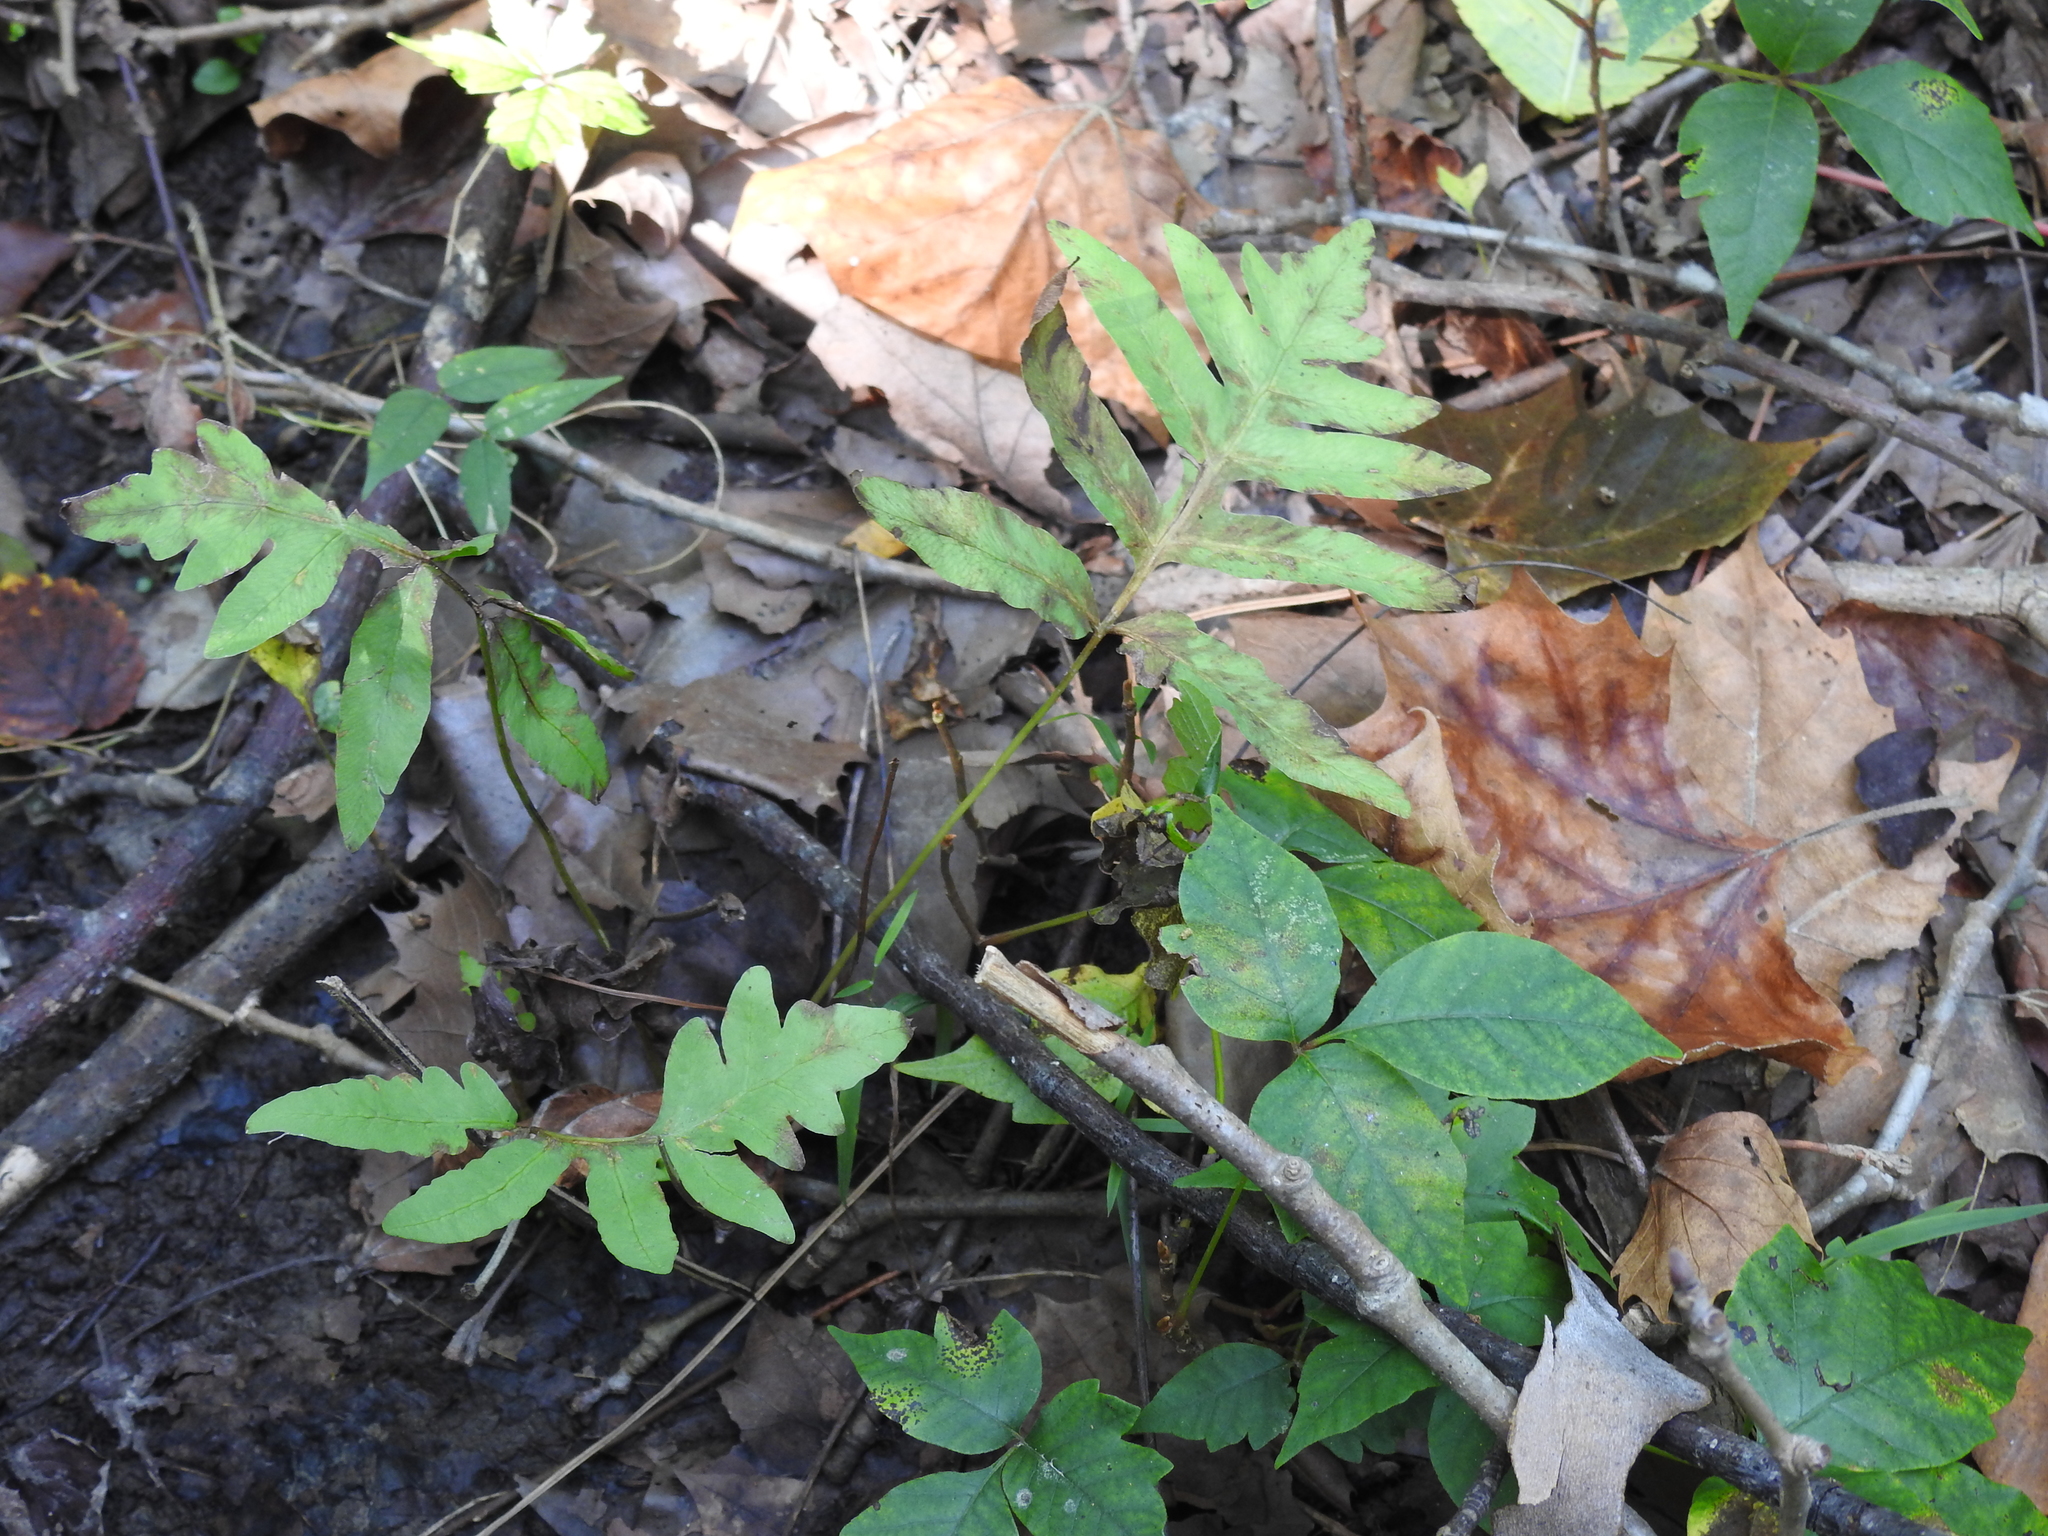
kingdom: Plantae
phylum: Tracheophyta
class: Polypodiopsida
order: Polypodiales
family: Onocleaceae
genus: Onoclea
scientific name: Onoclea sensibilis
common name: Sensitive fern
